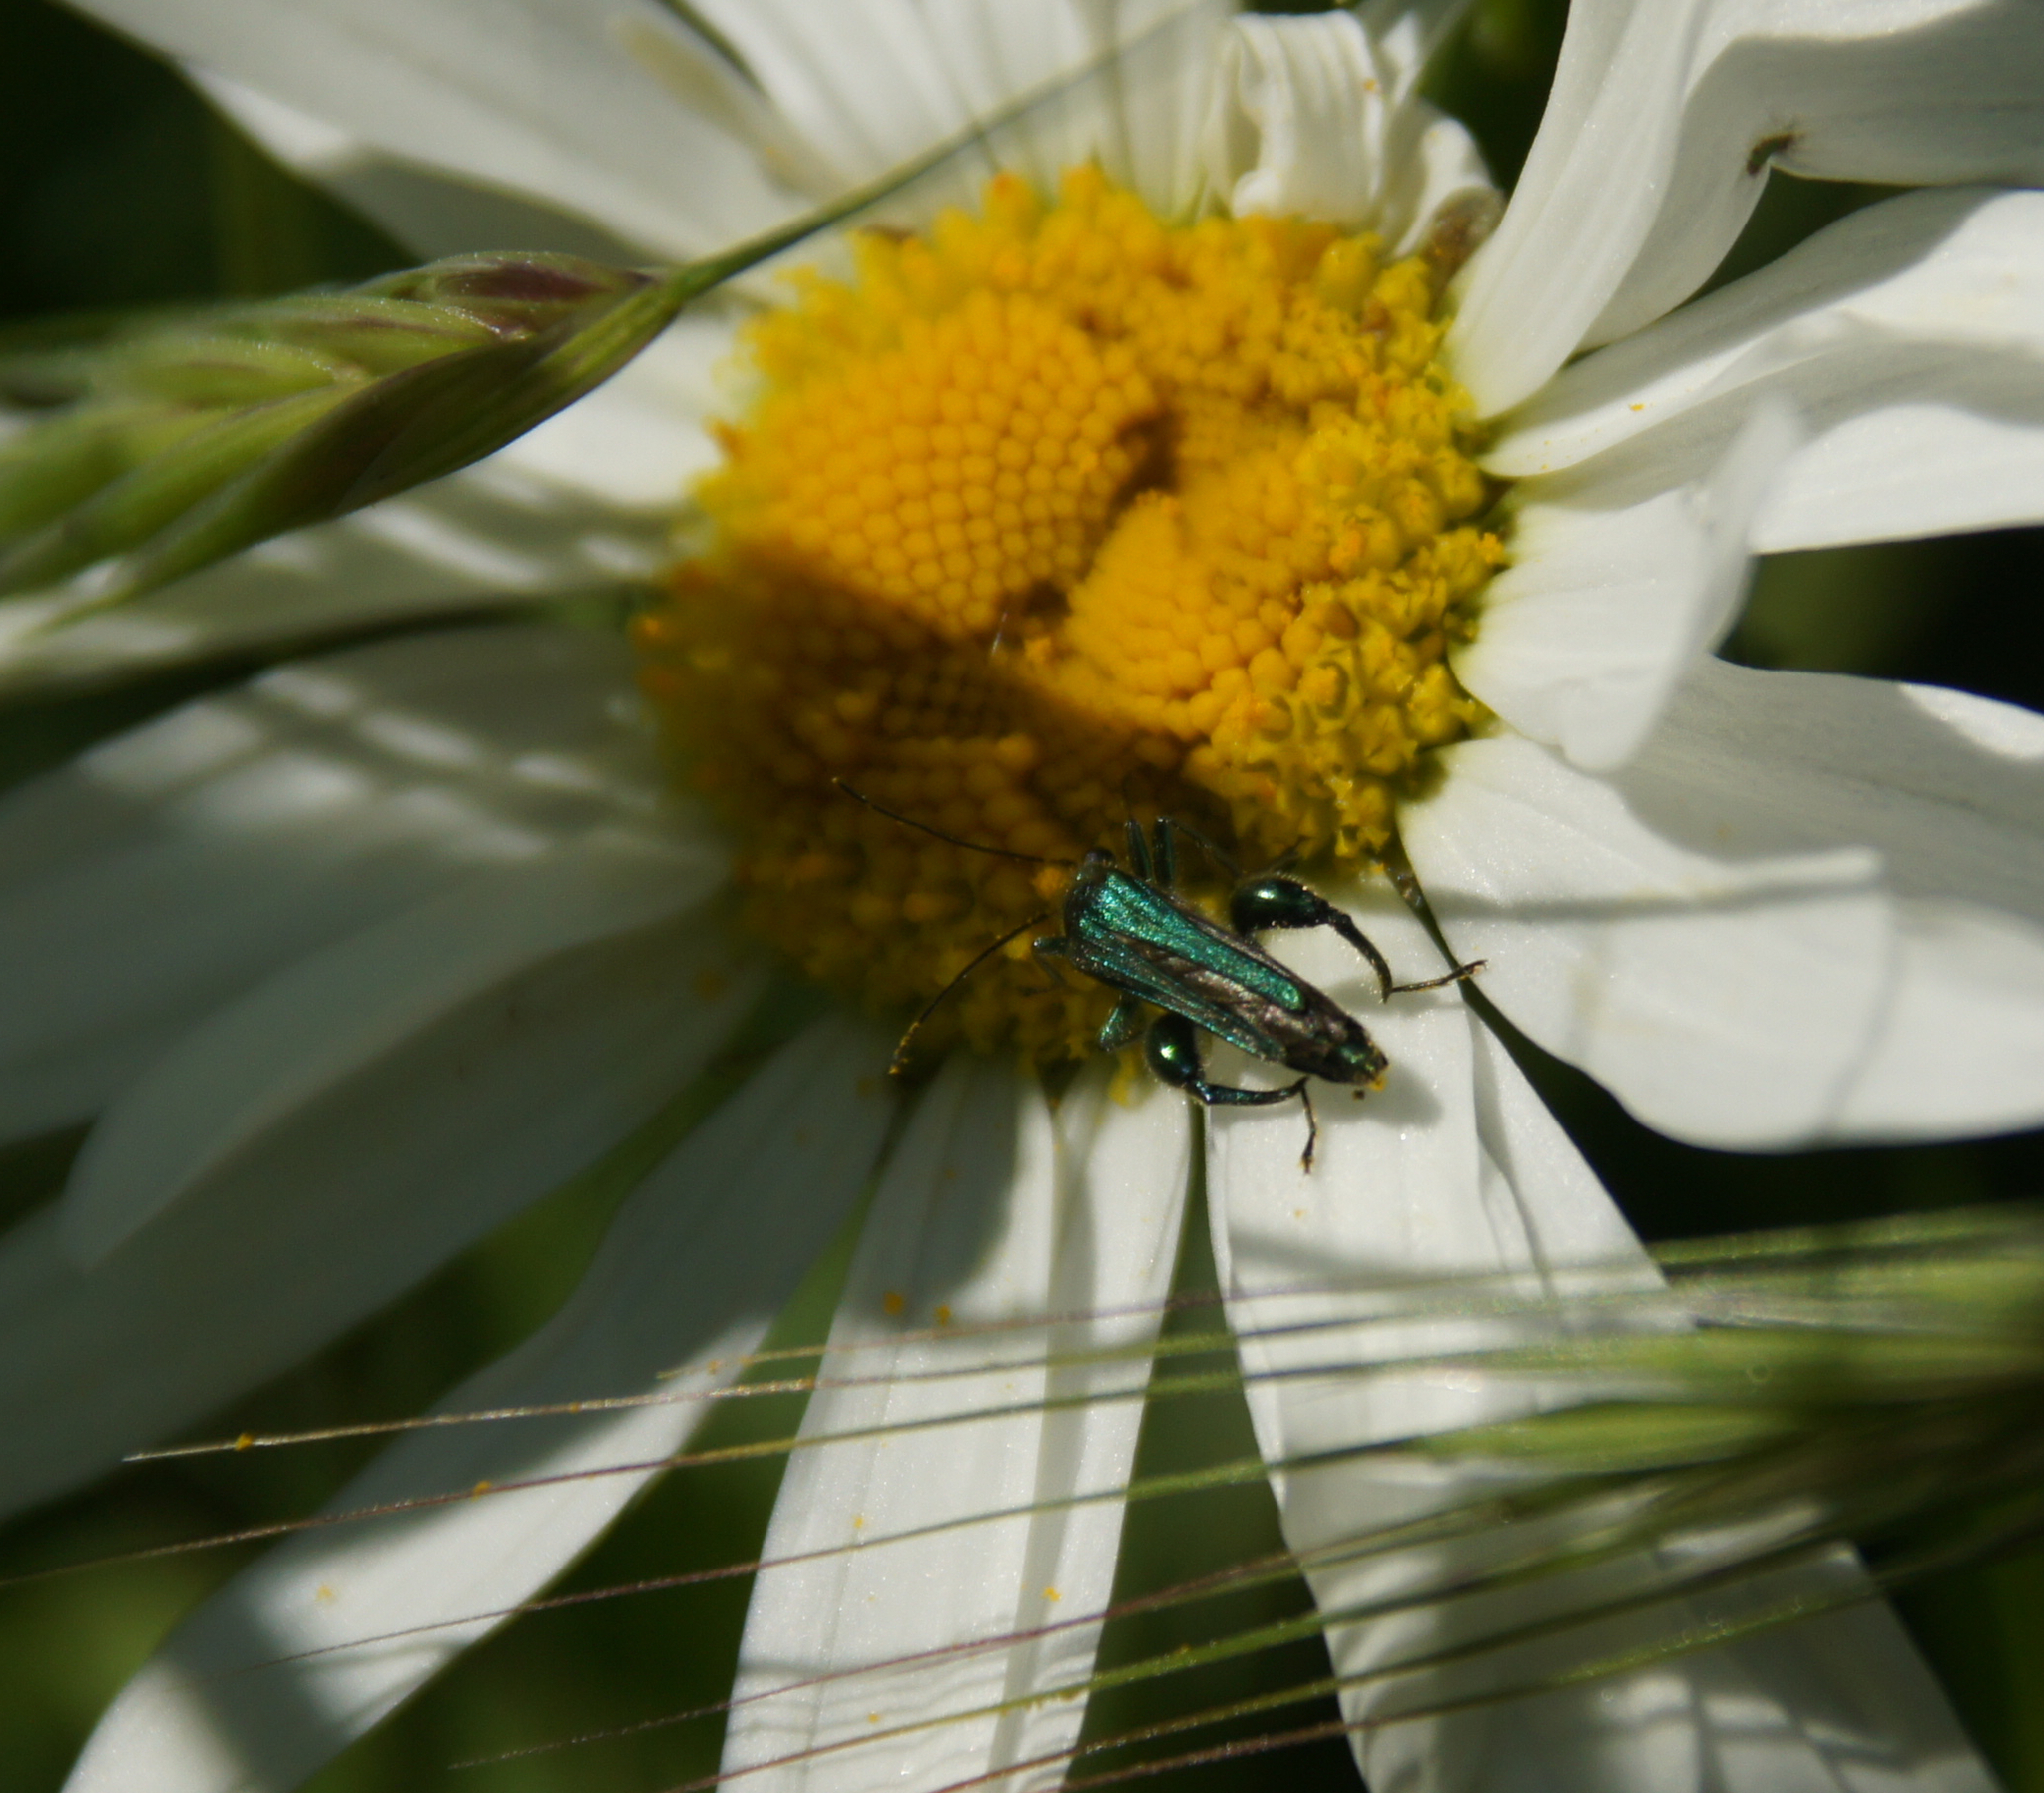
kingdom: Animalia
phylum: Arthropoda
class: Insecta
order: Coleoptera
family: Oedemeridae
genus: Oedemera
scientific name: Oedemera nobilis
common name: Swollen-thighed beetle
